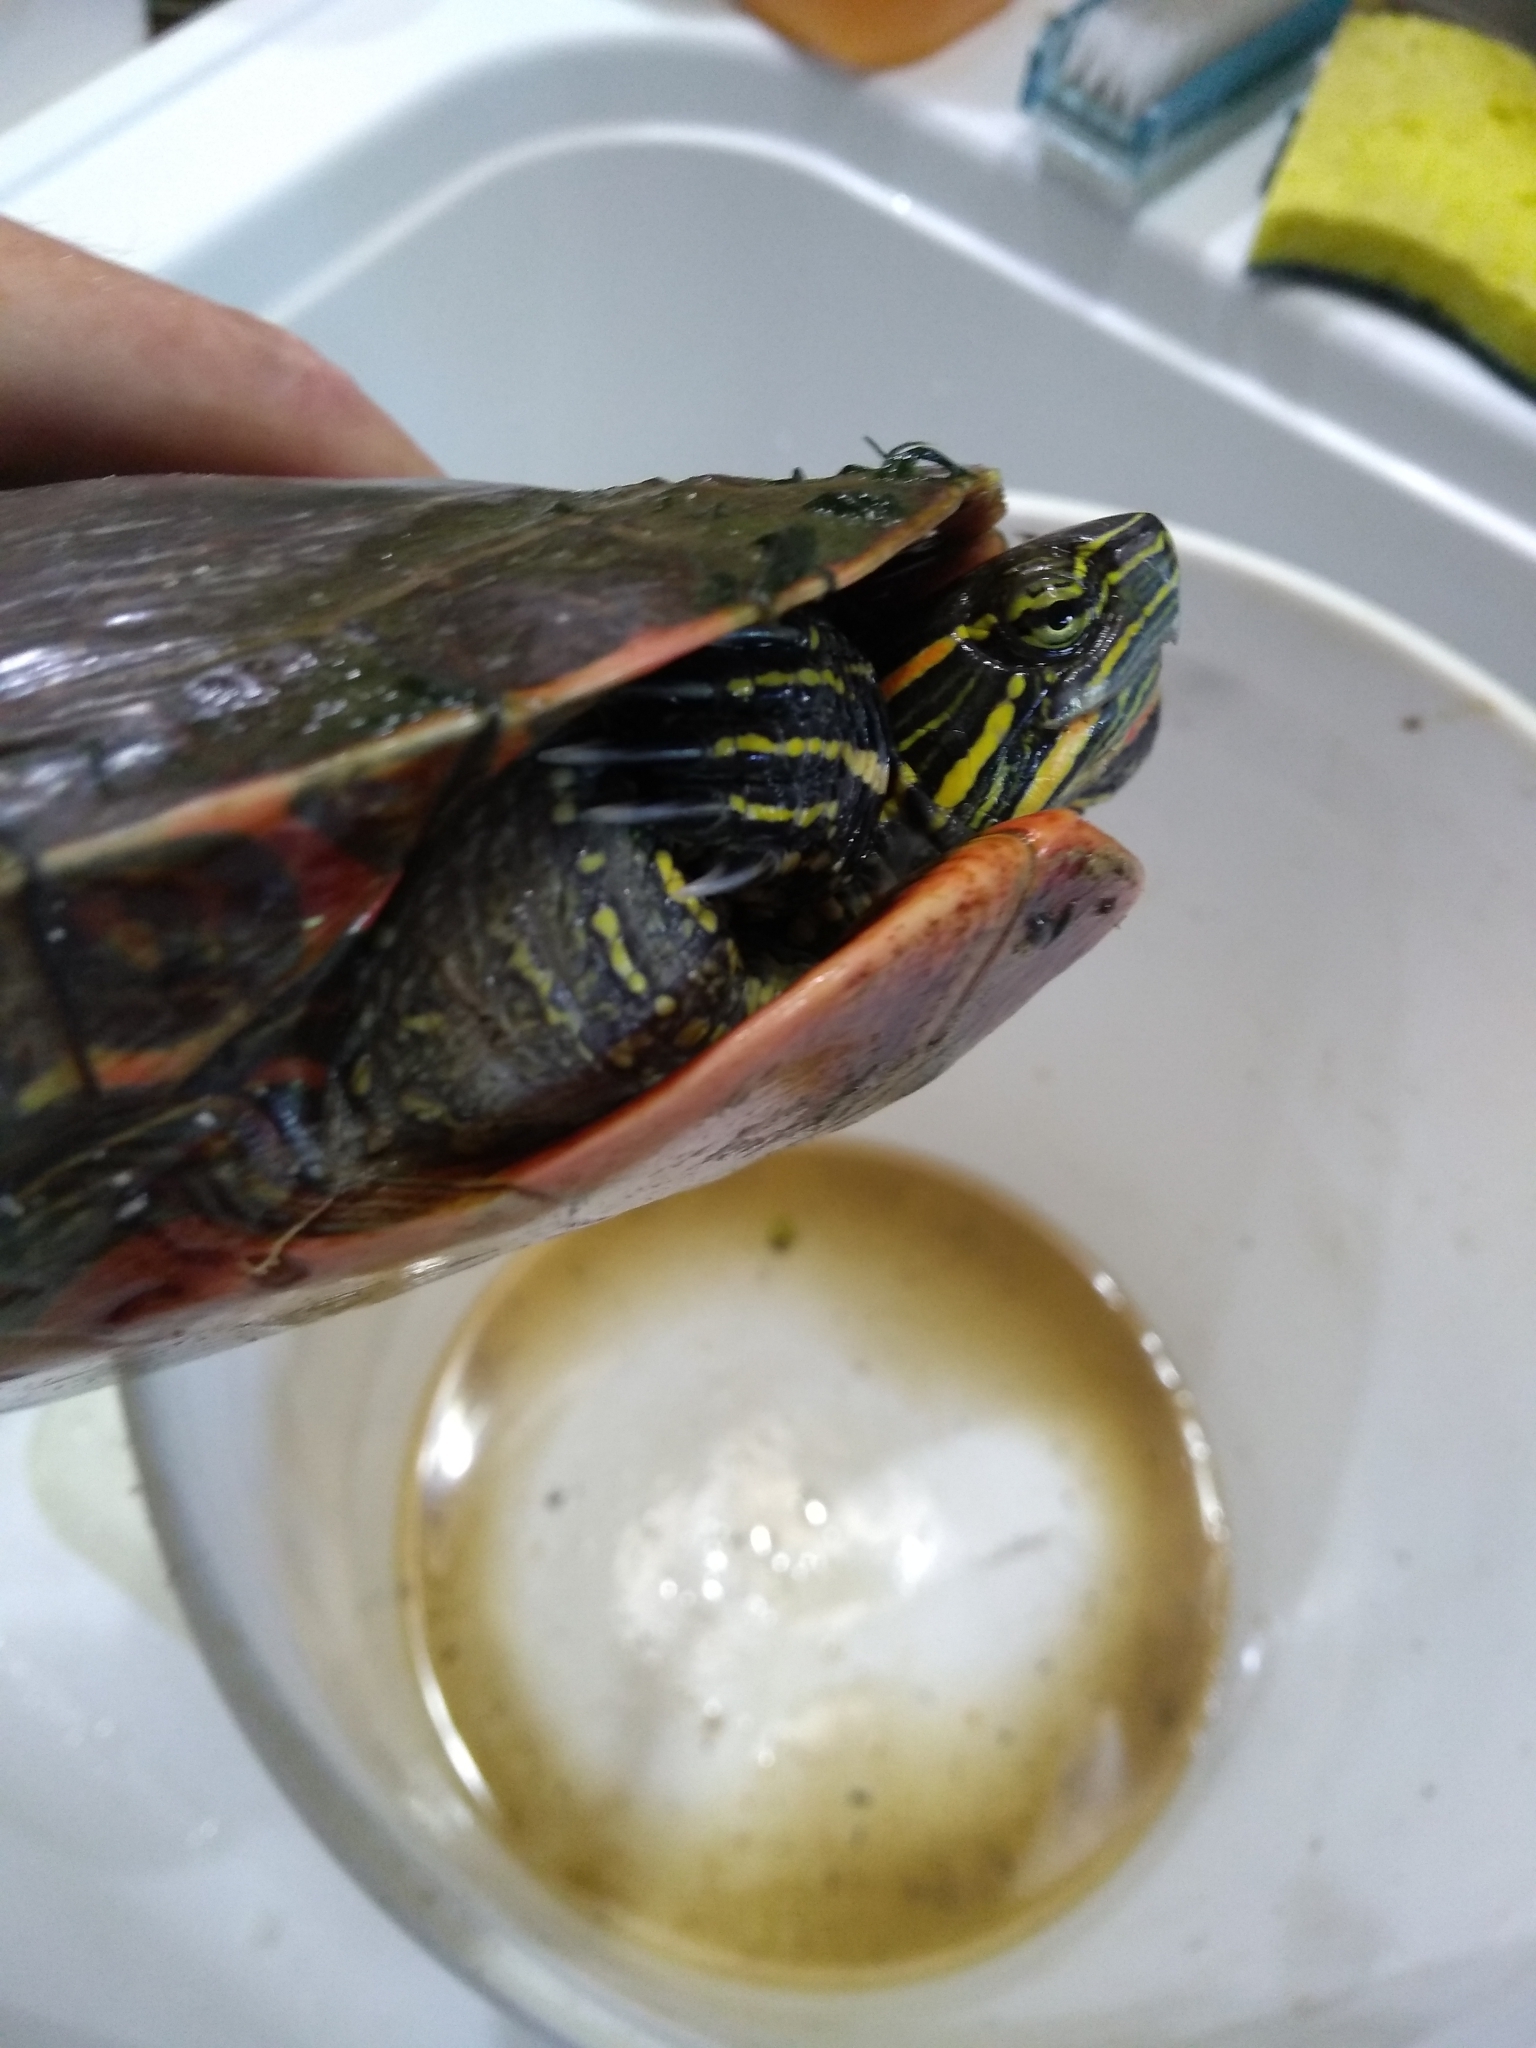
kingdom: Animalia
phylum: Chordata
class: Testudines
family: Emydidae
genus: Chrysemys
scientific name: Chrysemys picta
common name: Painted turtle
